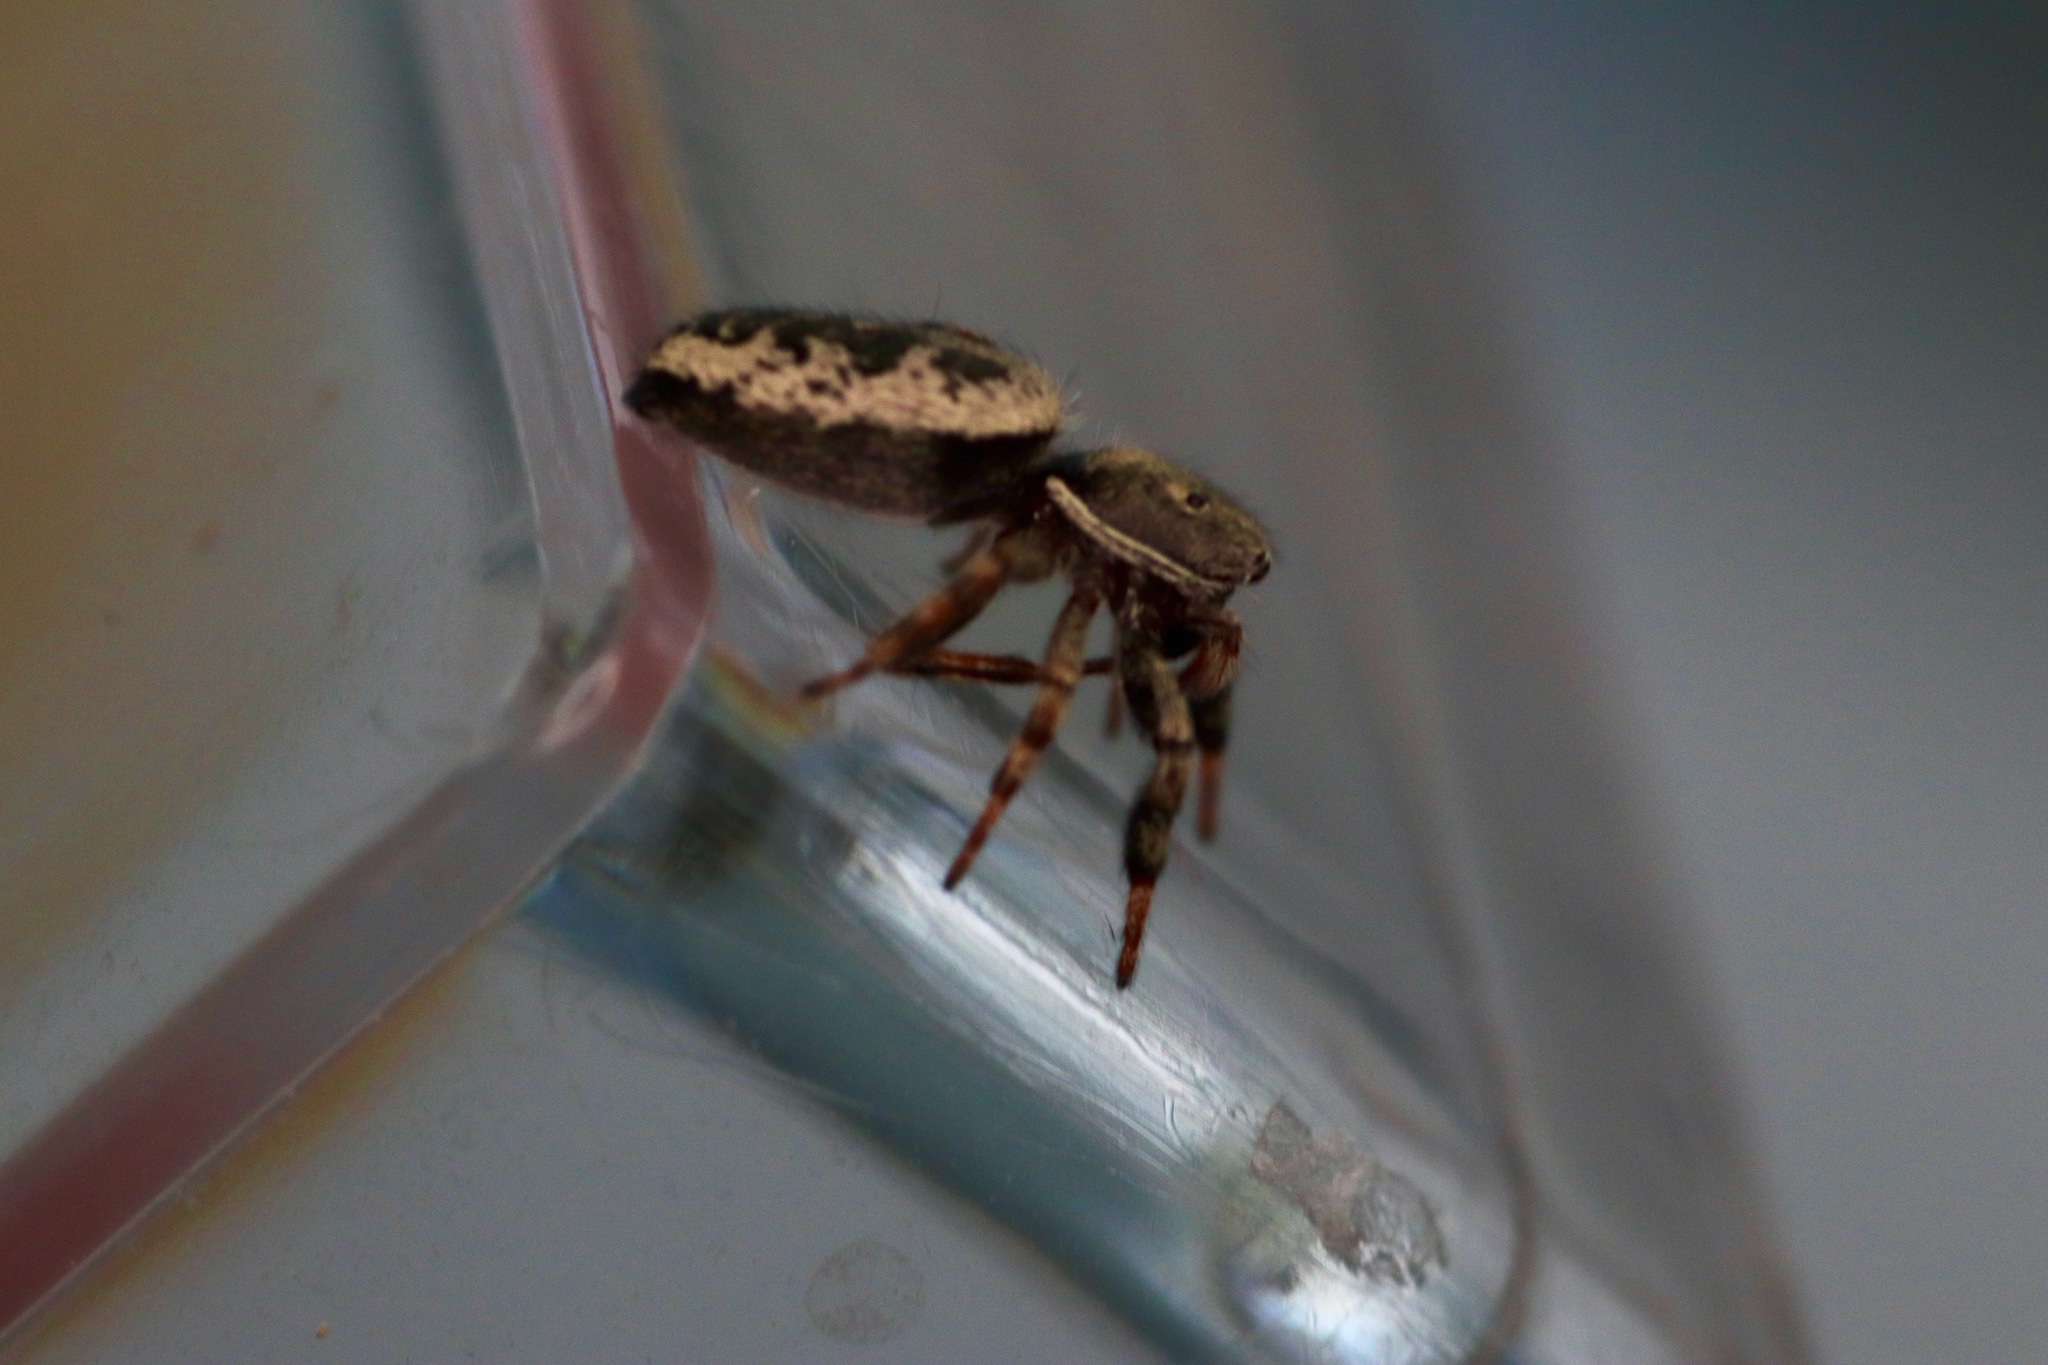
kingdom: Animalia
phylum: Arthropoda
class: Arachnida
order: Araneae
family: Salticidae
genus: Tutelina
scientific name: Tutelina harti
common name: Hart's jumping spider
